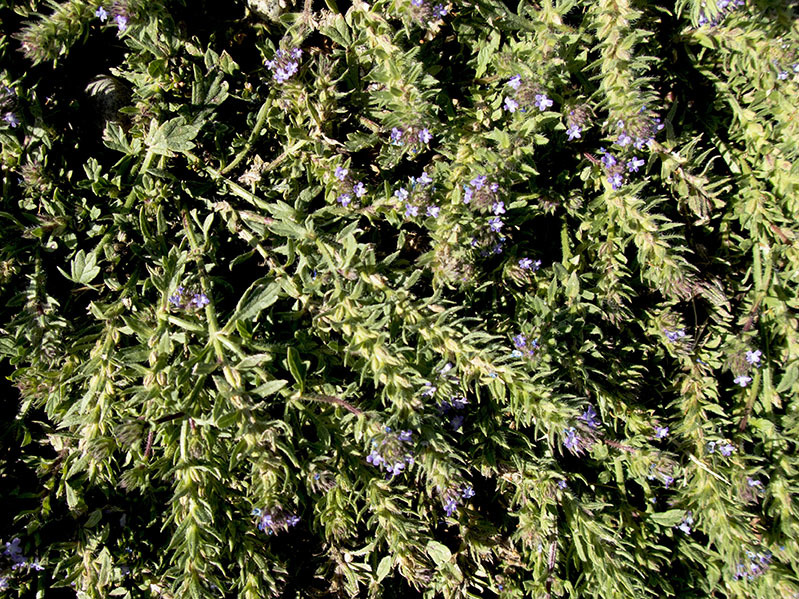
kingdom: Plantae
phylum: Tracheophyta
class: Magnoliopsida
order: Lamiales
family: Verbenaceae
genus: Verbena
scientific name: Verbena bracteata
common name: Bracted vervain
